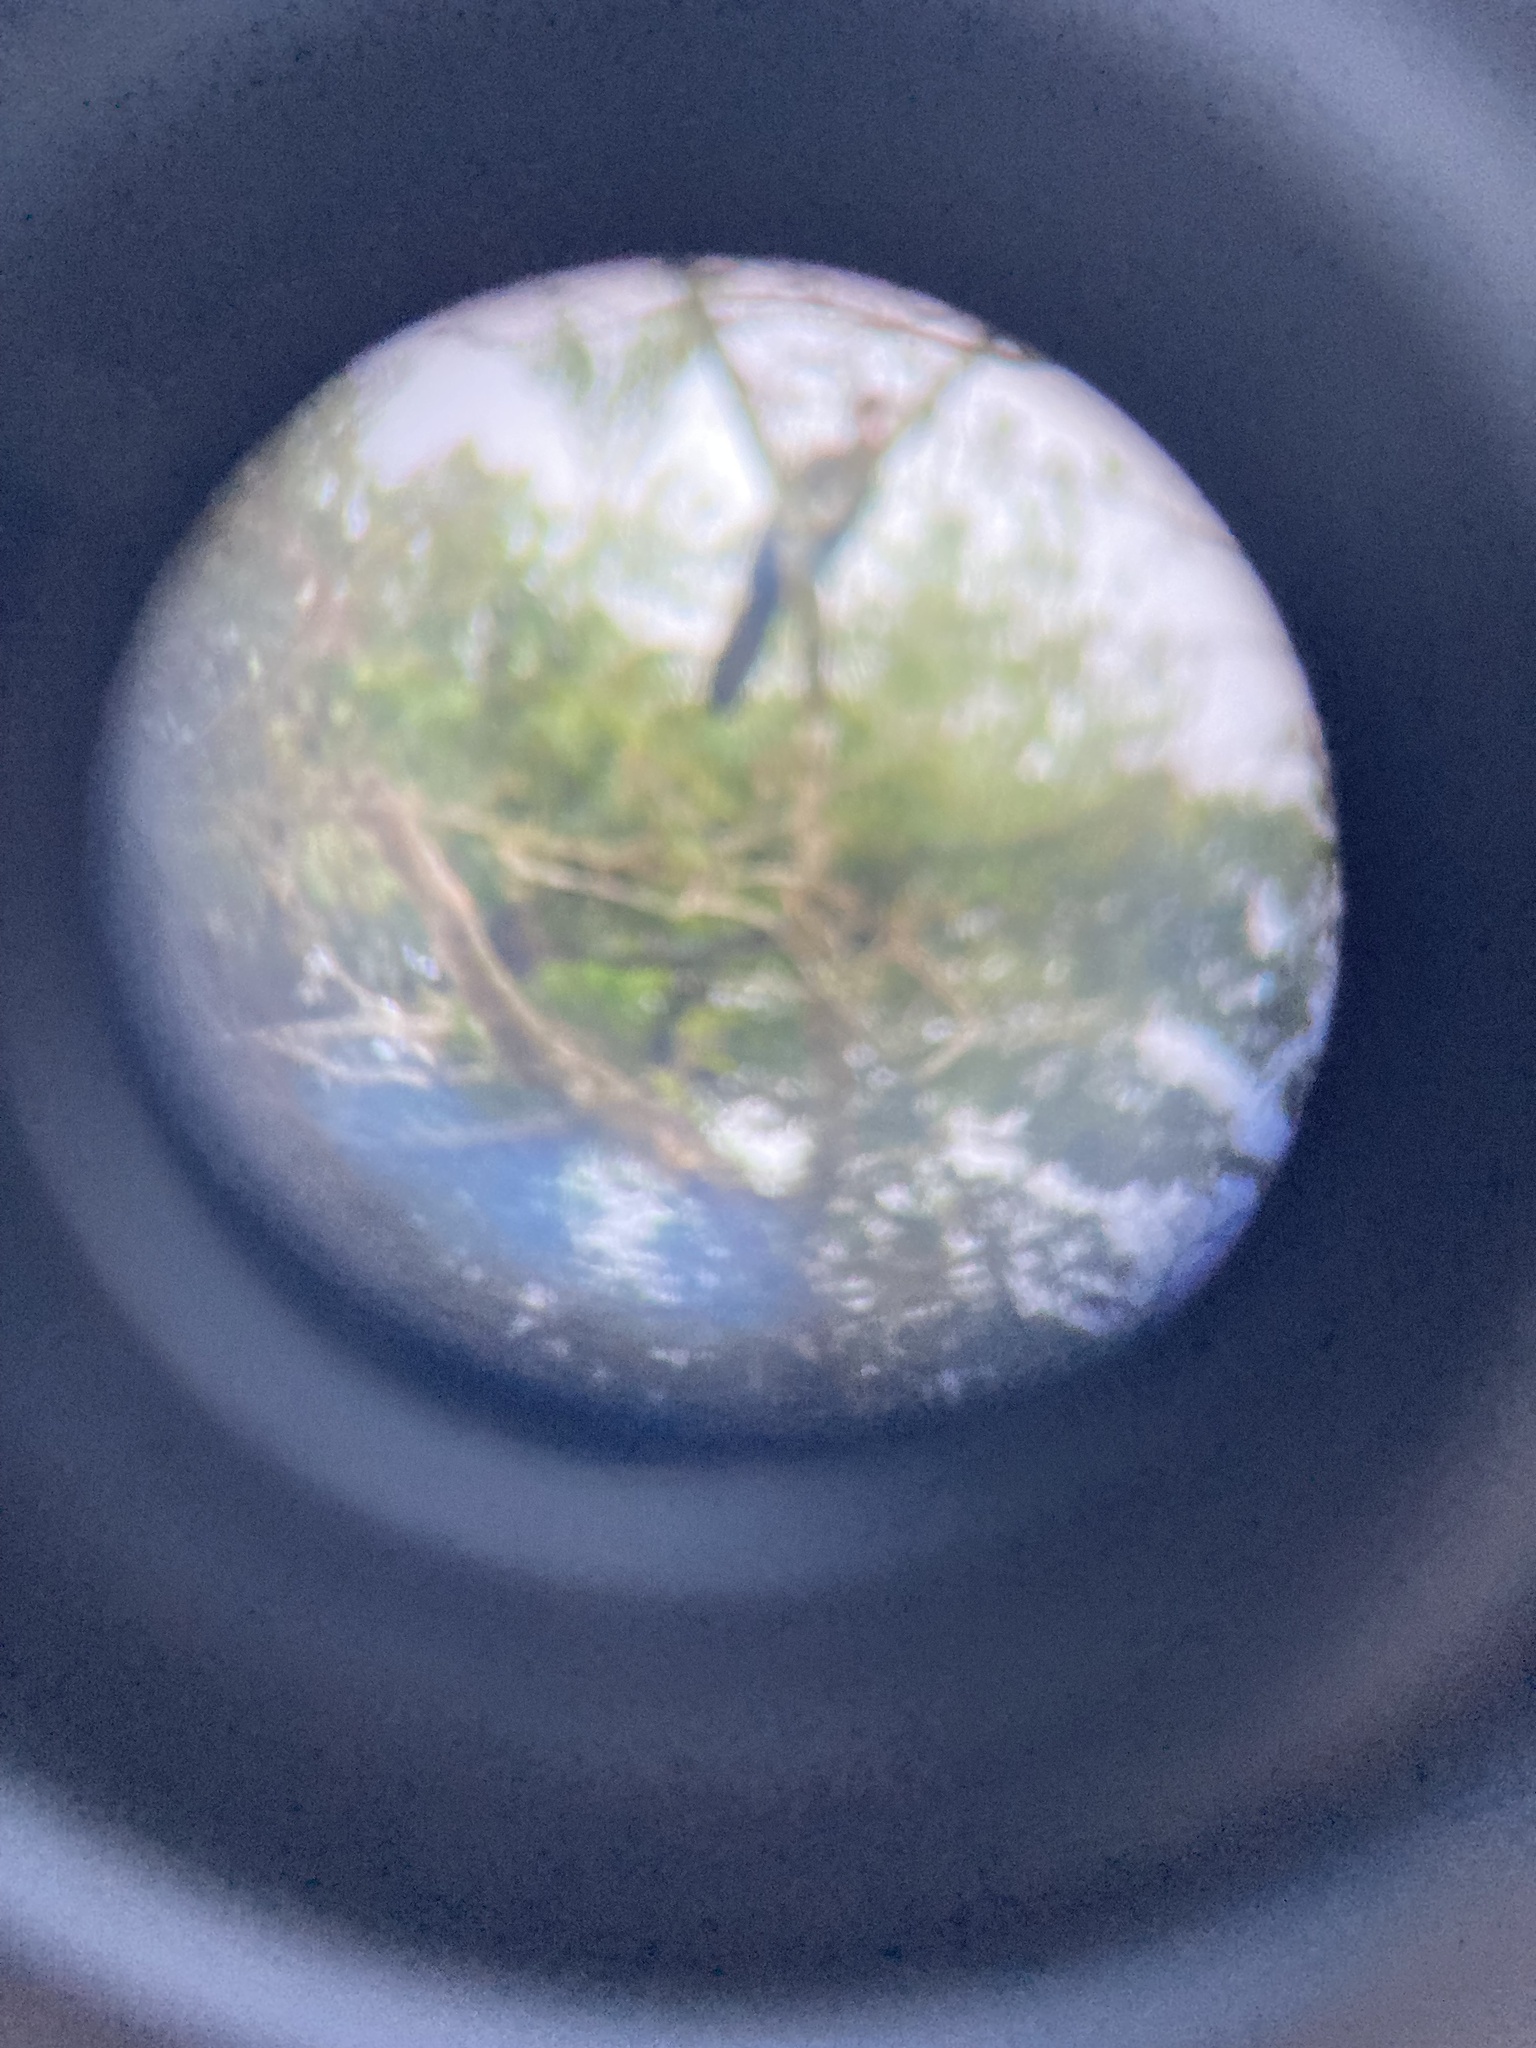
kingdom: Animalia
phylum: Chordata
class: Aves
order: Galliformes
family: Cracidae
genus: Penelope
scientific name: Penelope purpurascens
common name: Crested guan
